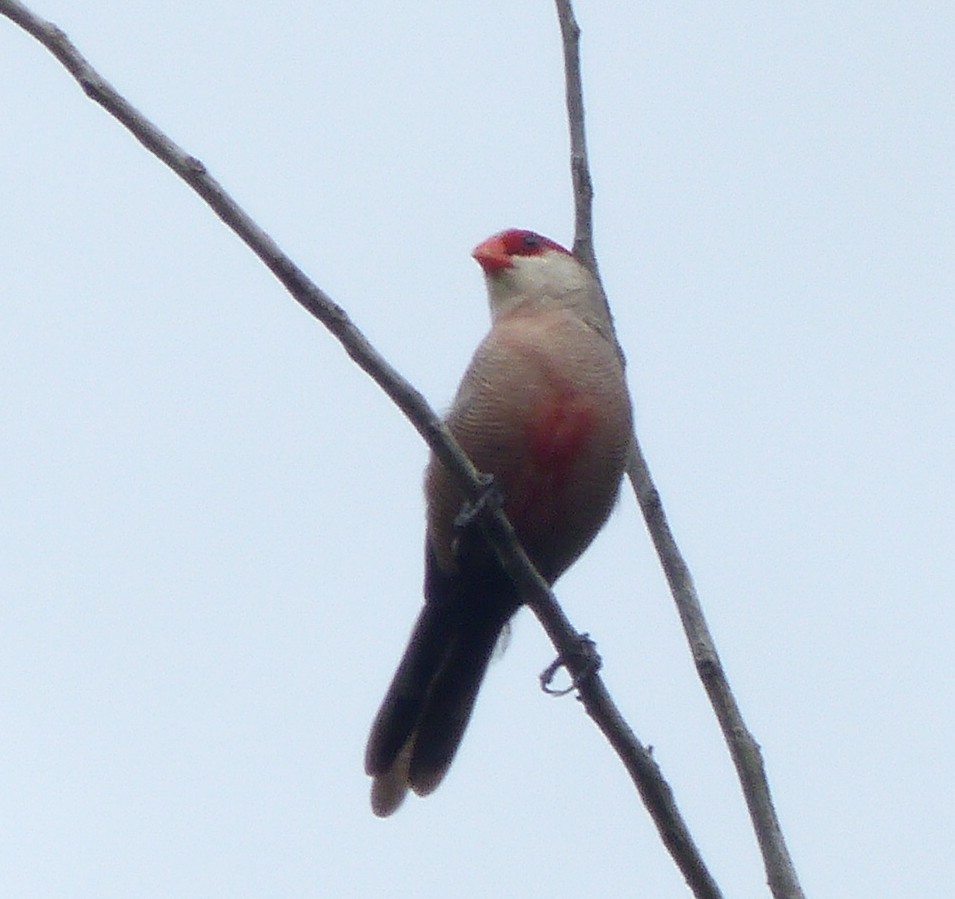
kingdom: Animalia
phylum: Chordata
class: Aves
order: Passeriformes
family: Estrildidae
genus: Estrilda
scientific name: Estrilda astrild
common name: Common waxbill
